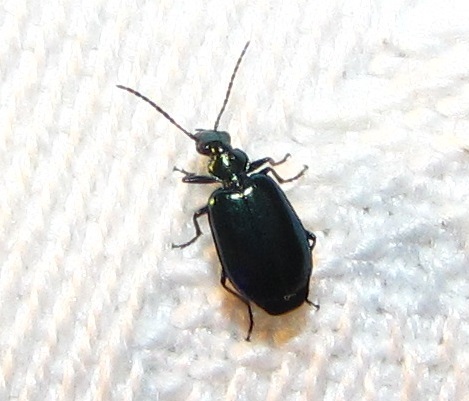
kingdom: Animalia
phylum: Arthropoda
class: Insecta
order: Coleoptera
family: Carabidae
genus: Lebia
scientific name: Lebia viridis
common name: Flower lebia beetle
